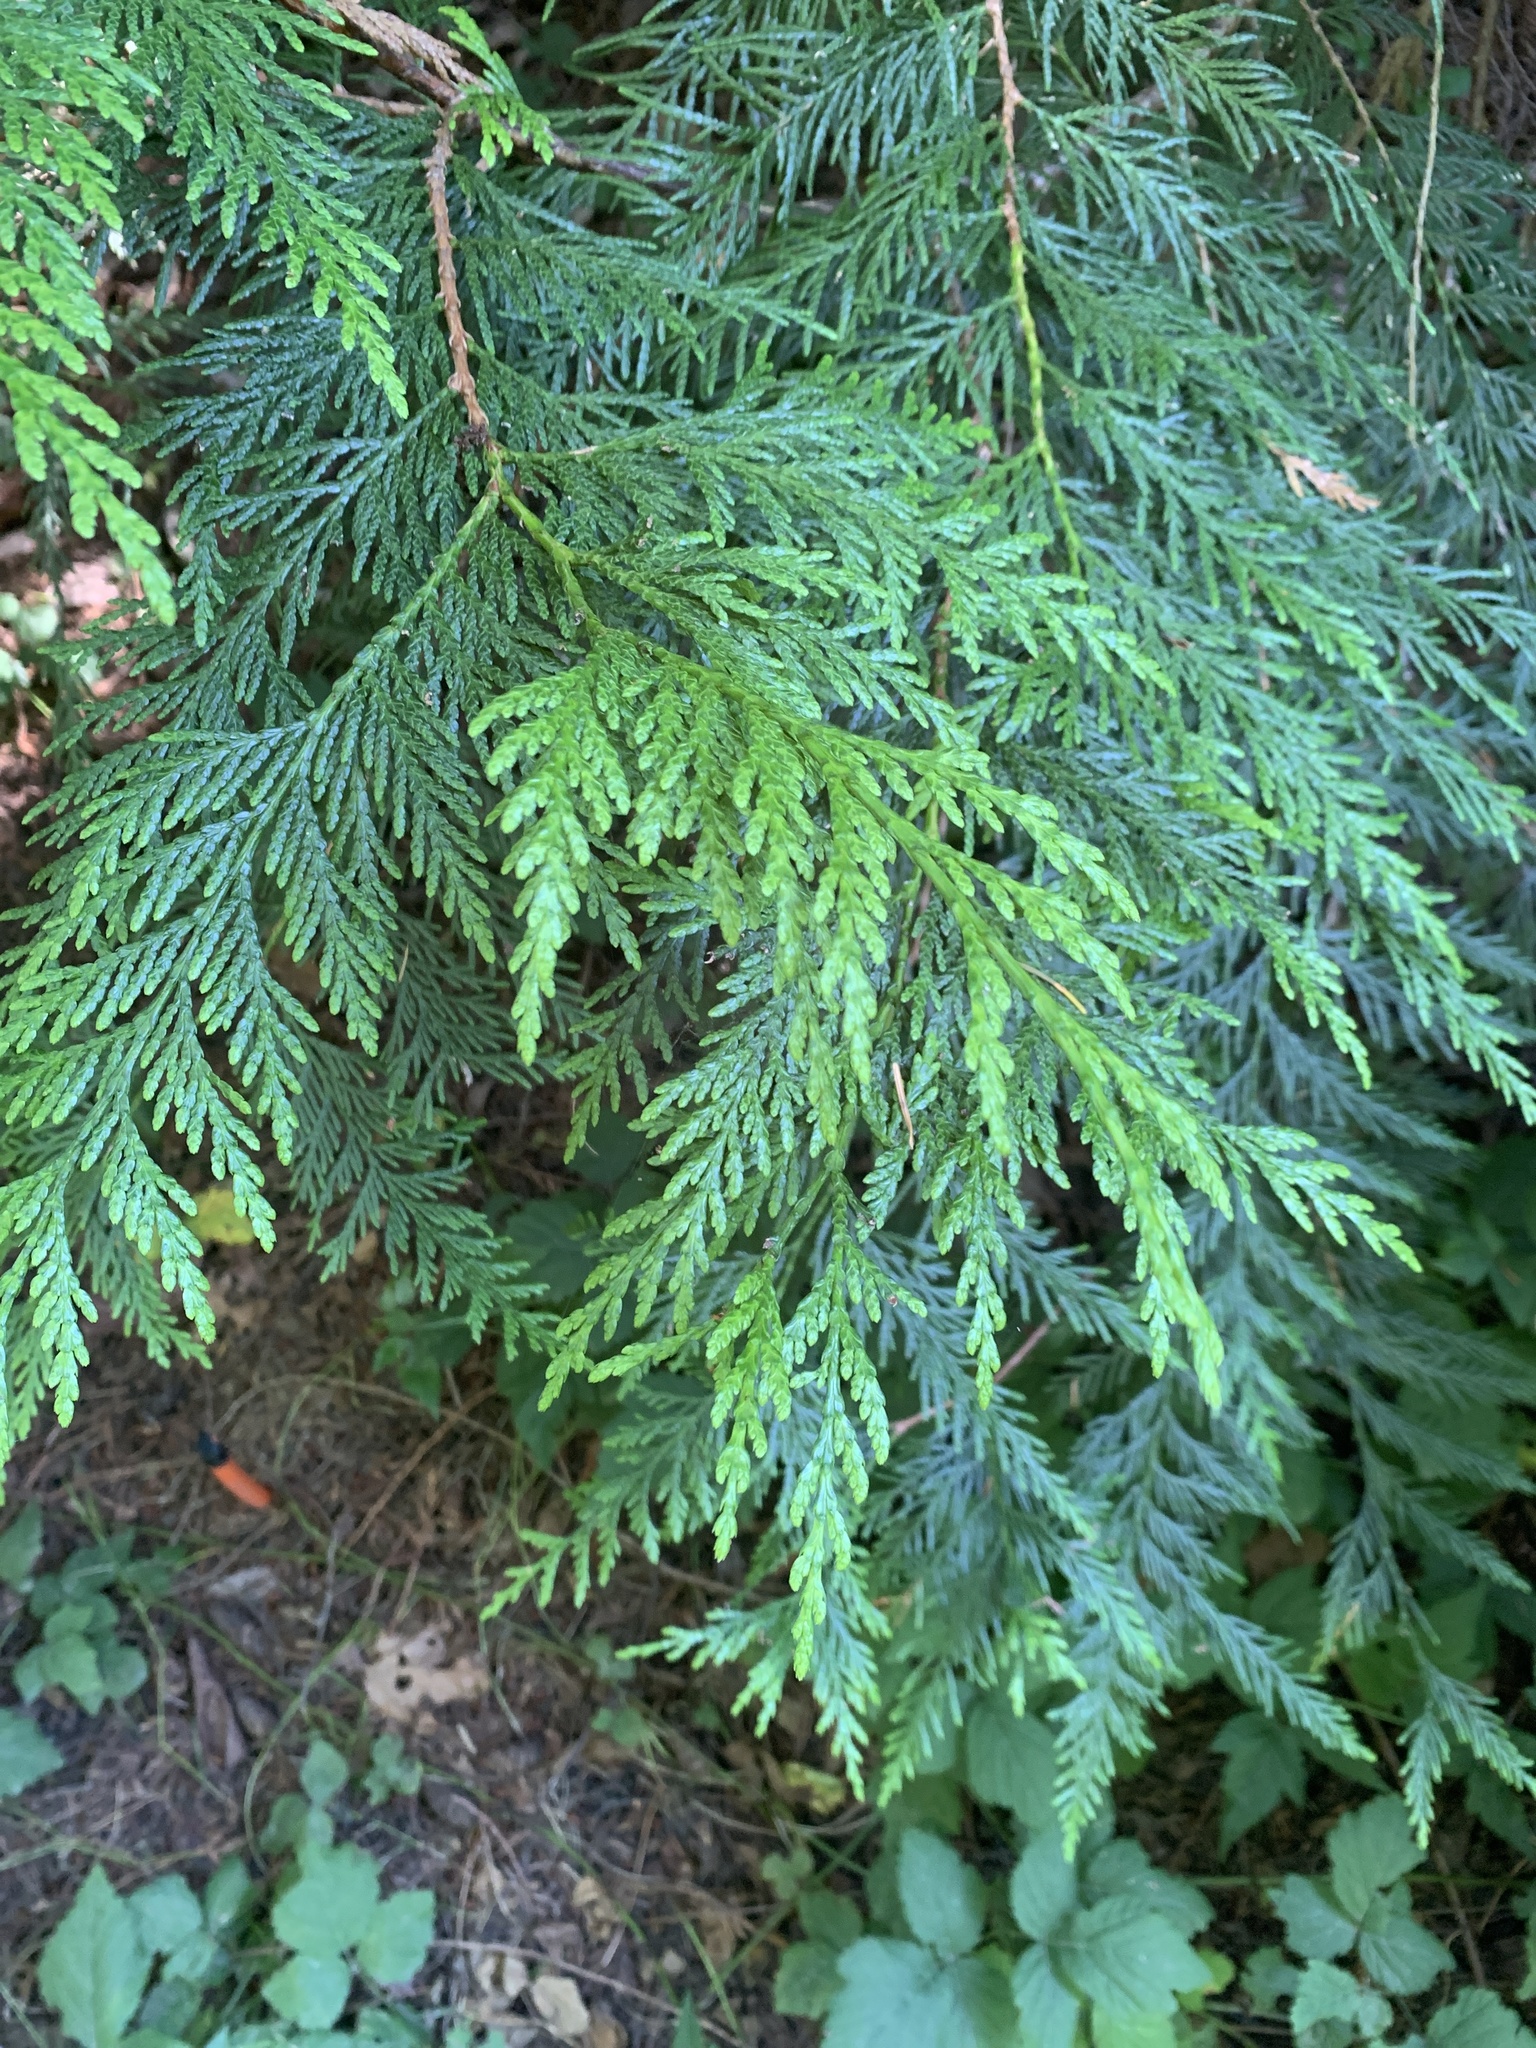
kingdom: Plantae
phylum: Tracheophyta
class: Pinopsida
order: Pinales
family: Cupressaceae
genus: Thuja
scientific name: Thuja plicata
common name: Western red-cedar
